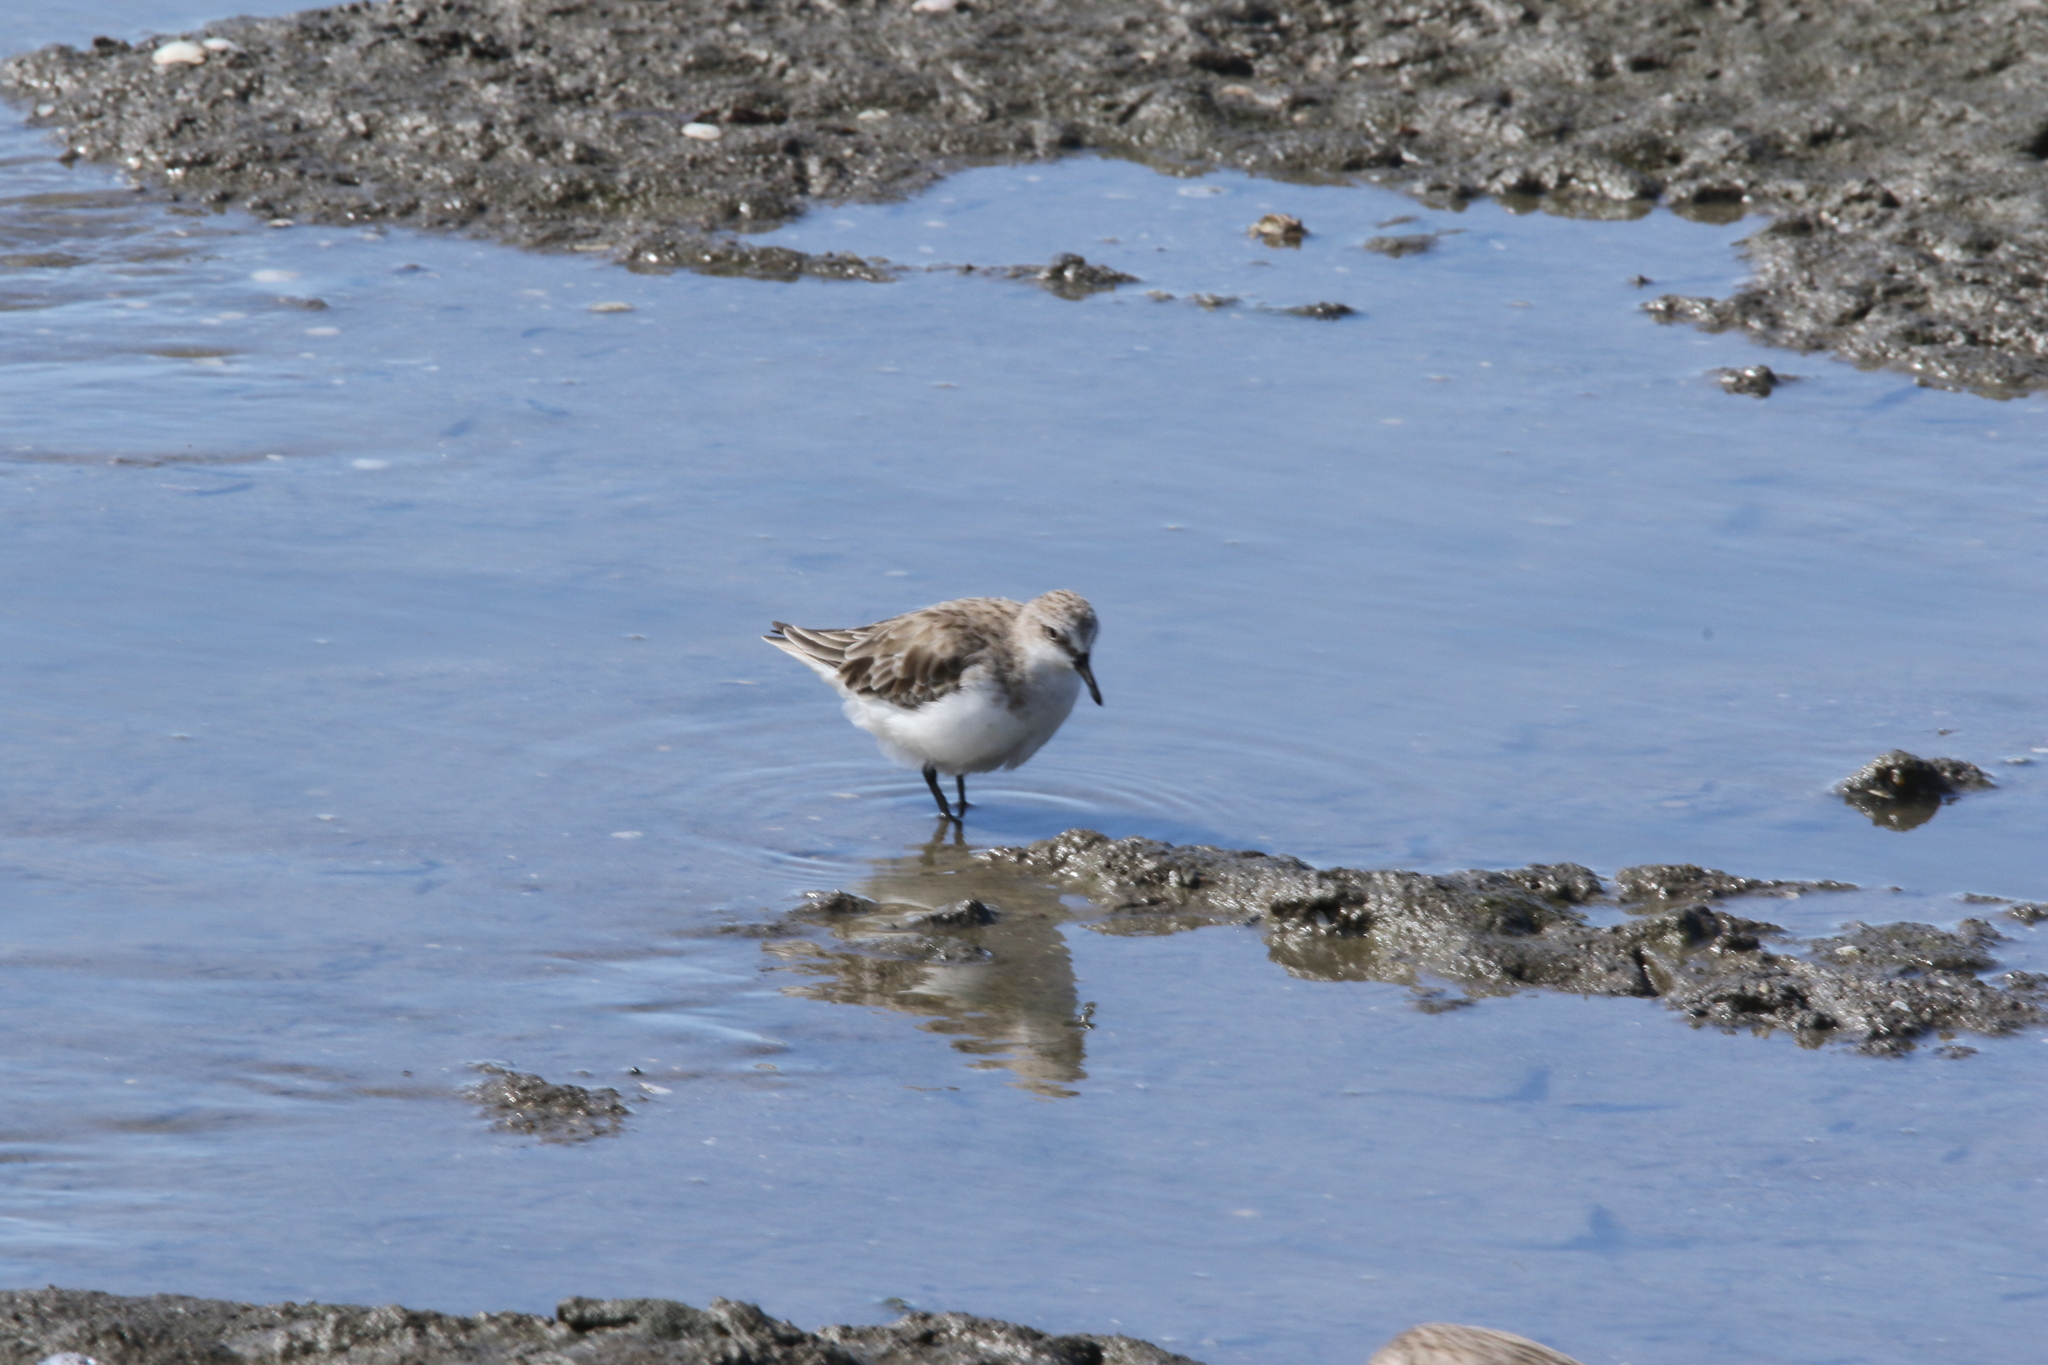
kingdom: Animalia
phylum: Chordata
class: Aves
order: Charadriiformes
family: Scolopacidae
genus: Calidris
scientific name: Calidris ruficollis
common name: Red-necked stint
